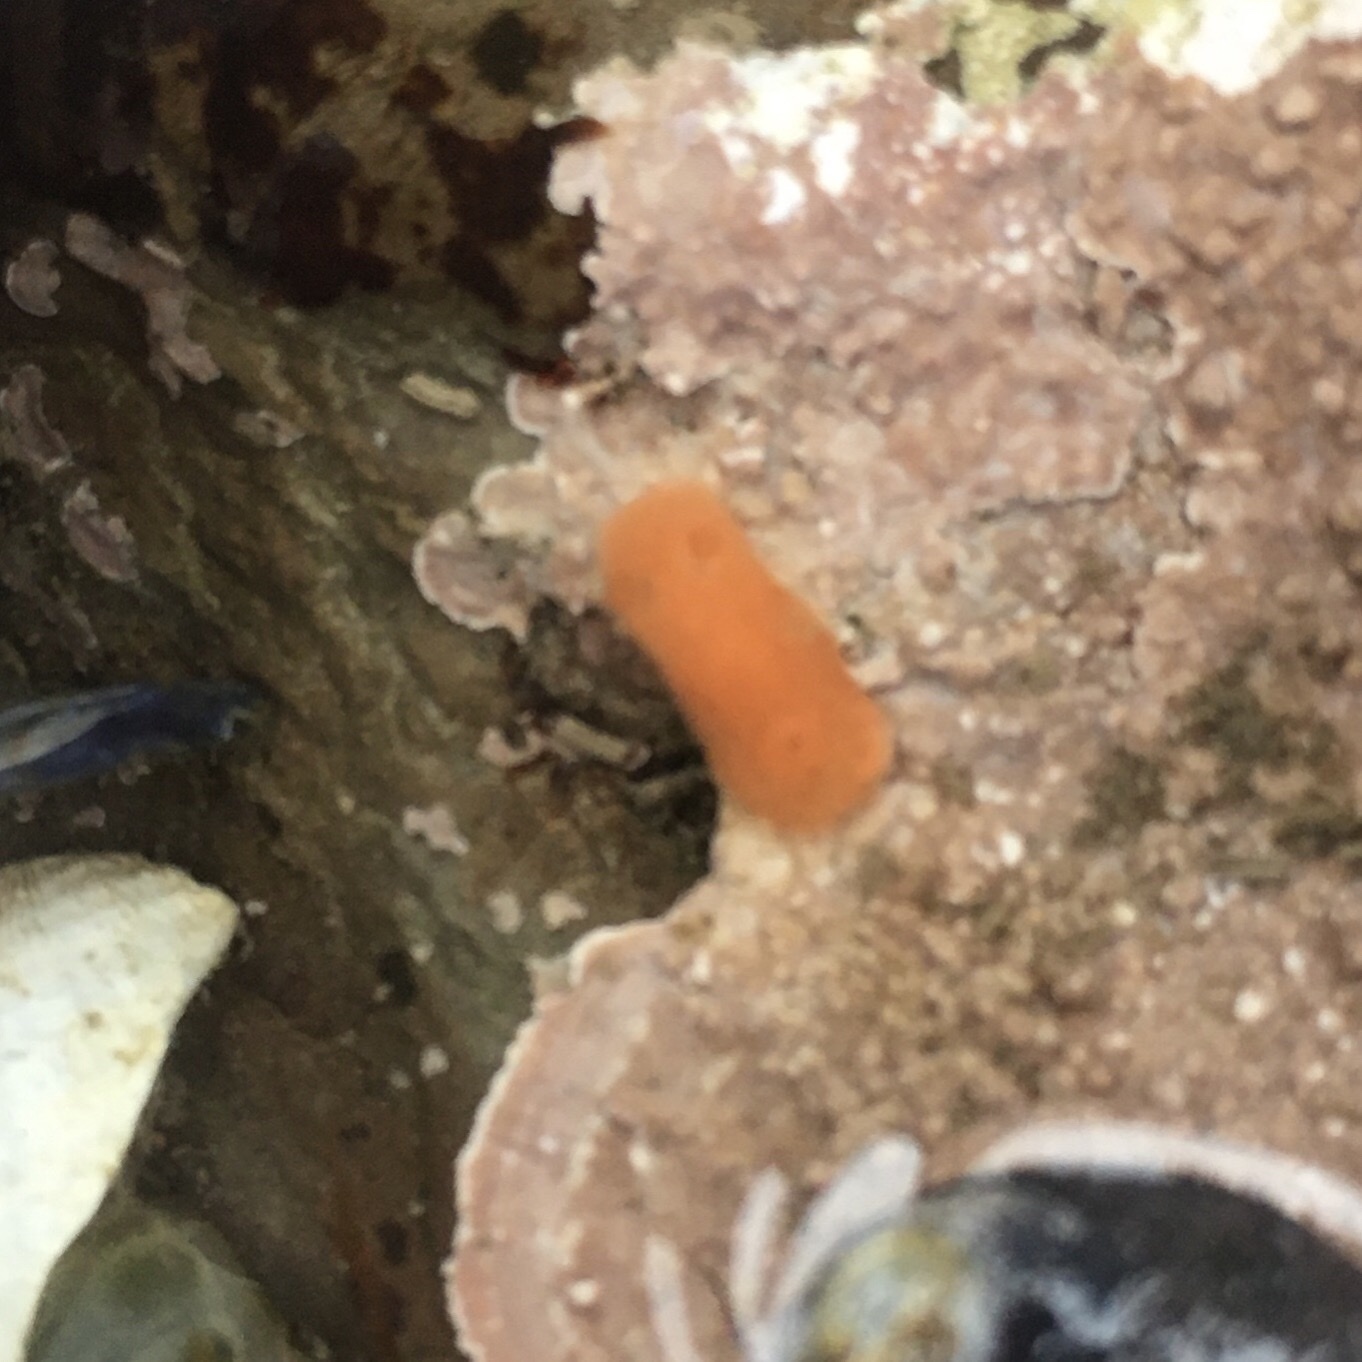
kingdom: Animalia
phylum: Mollusca
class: Gastropoda
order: Nudibranchia
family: Discodorididae
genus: Rostanga
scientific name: Rostanga pulchra
